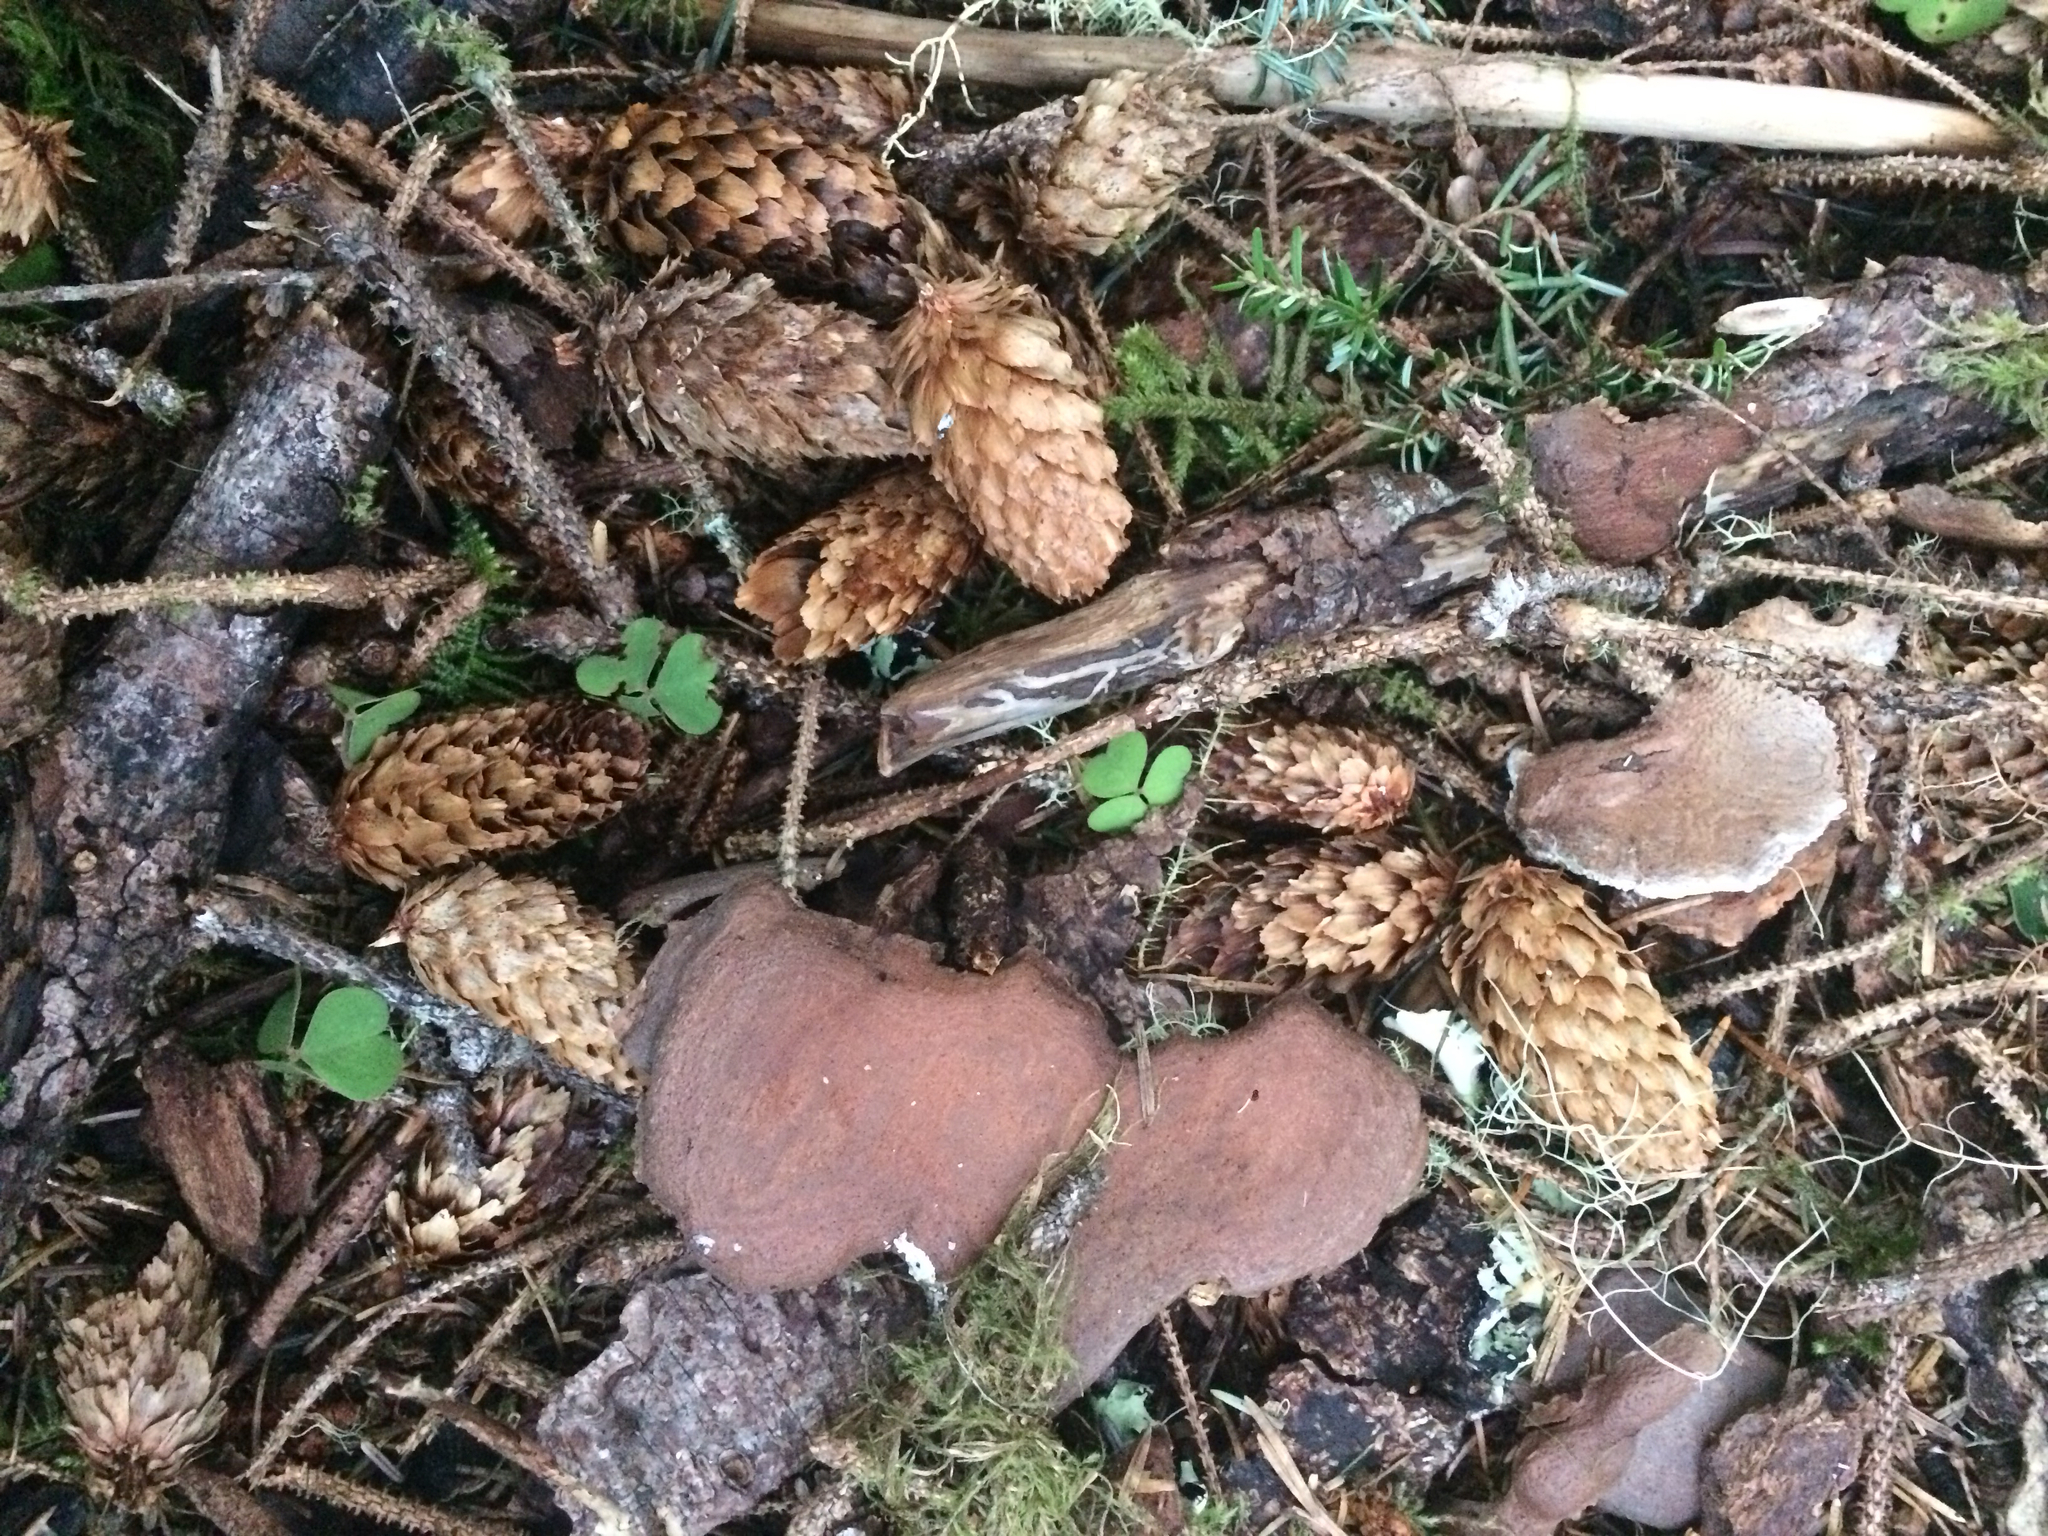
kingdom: Plantae
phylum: Tracheophyta
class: Pinopsida
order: Pinales
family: Pinaceae
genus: Picea
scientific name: Picea sitchensis
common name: Sitka spruce
